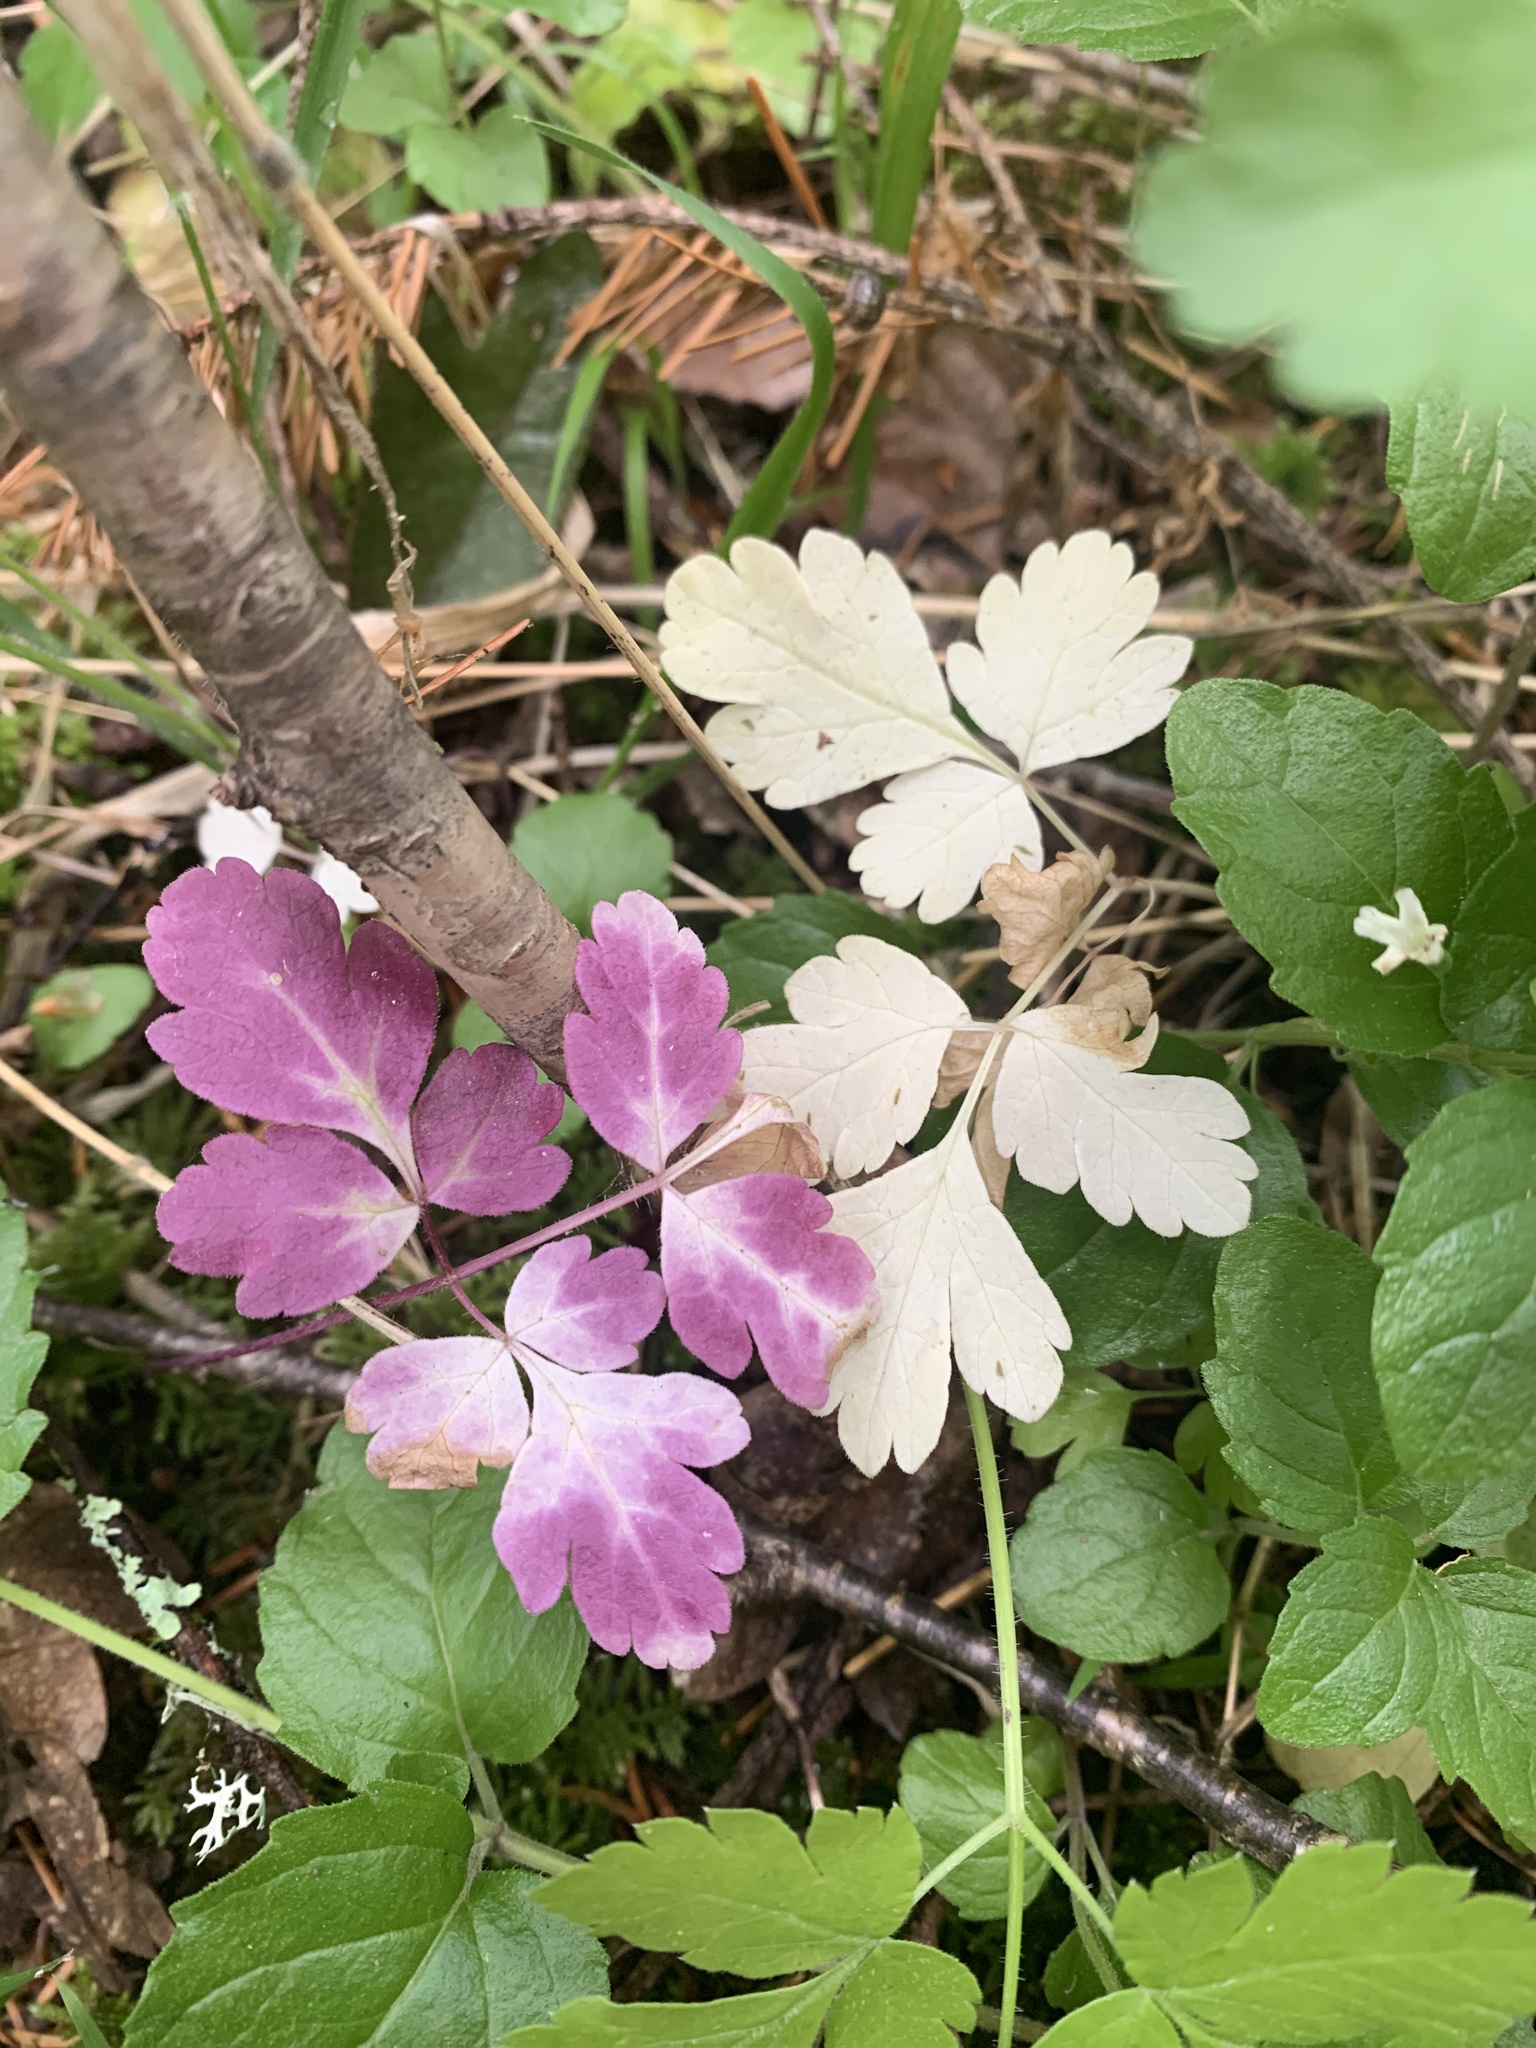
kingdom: Plantae
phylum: Tracheophyta
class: Magnoliopsida
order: Apiales
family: Apiaceae
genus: Osmorhiza
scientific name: Osmorhiza berteroi
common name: Mountain sweet cicely
